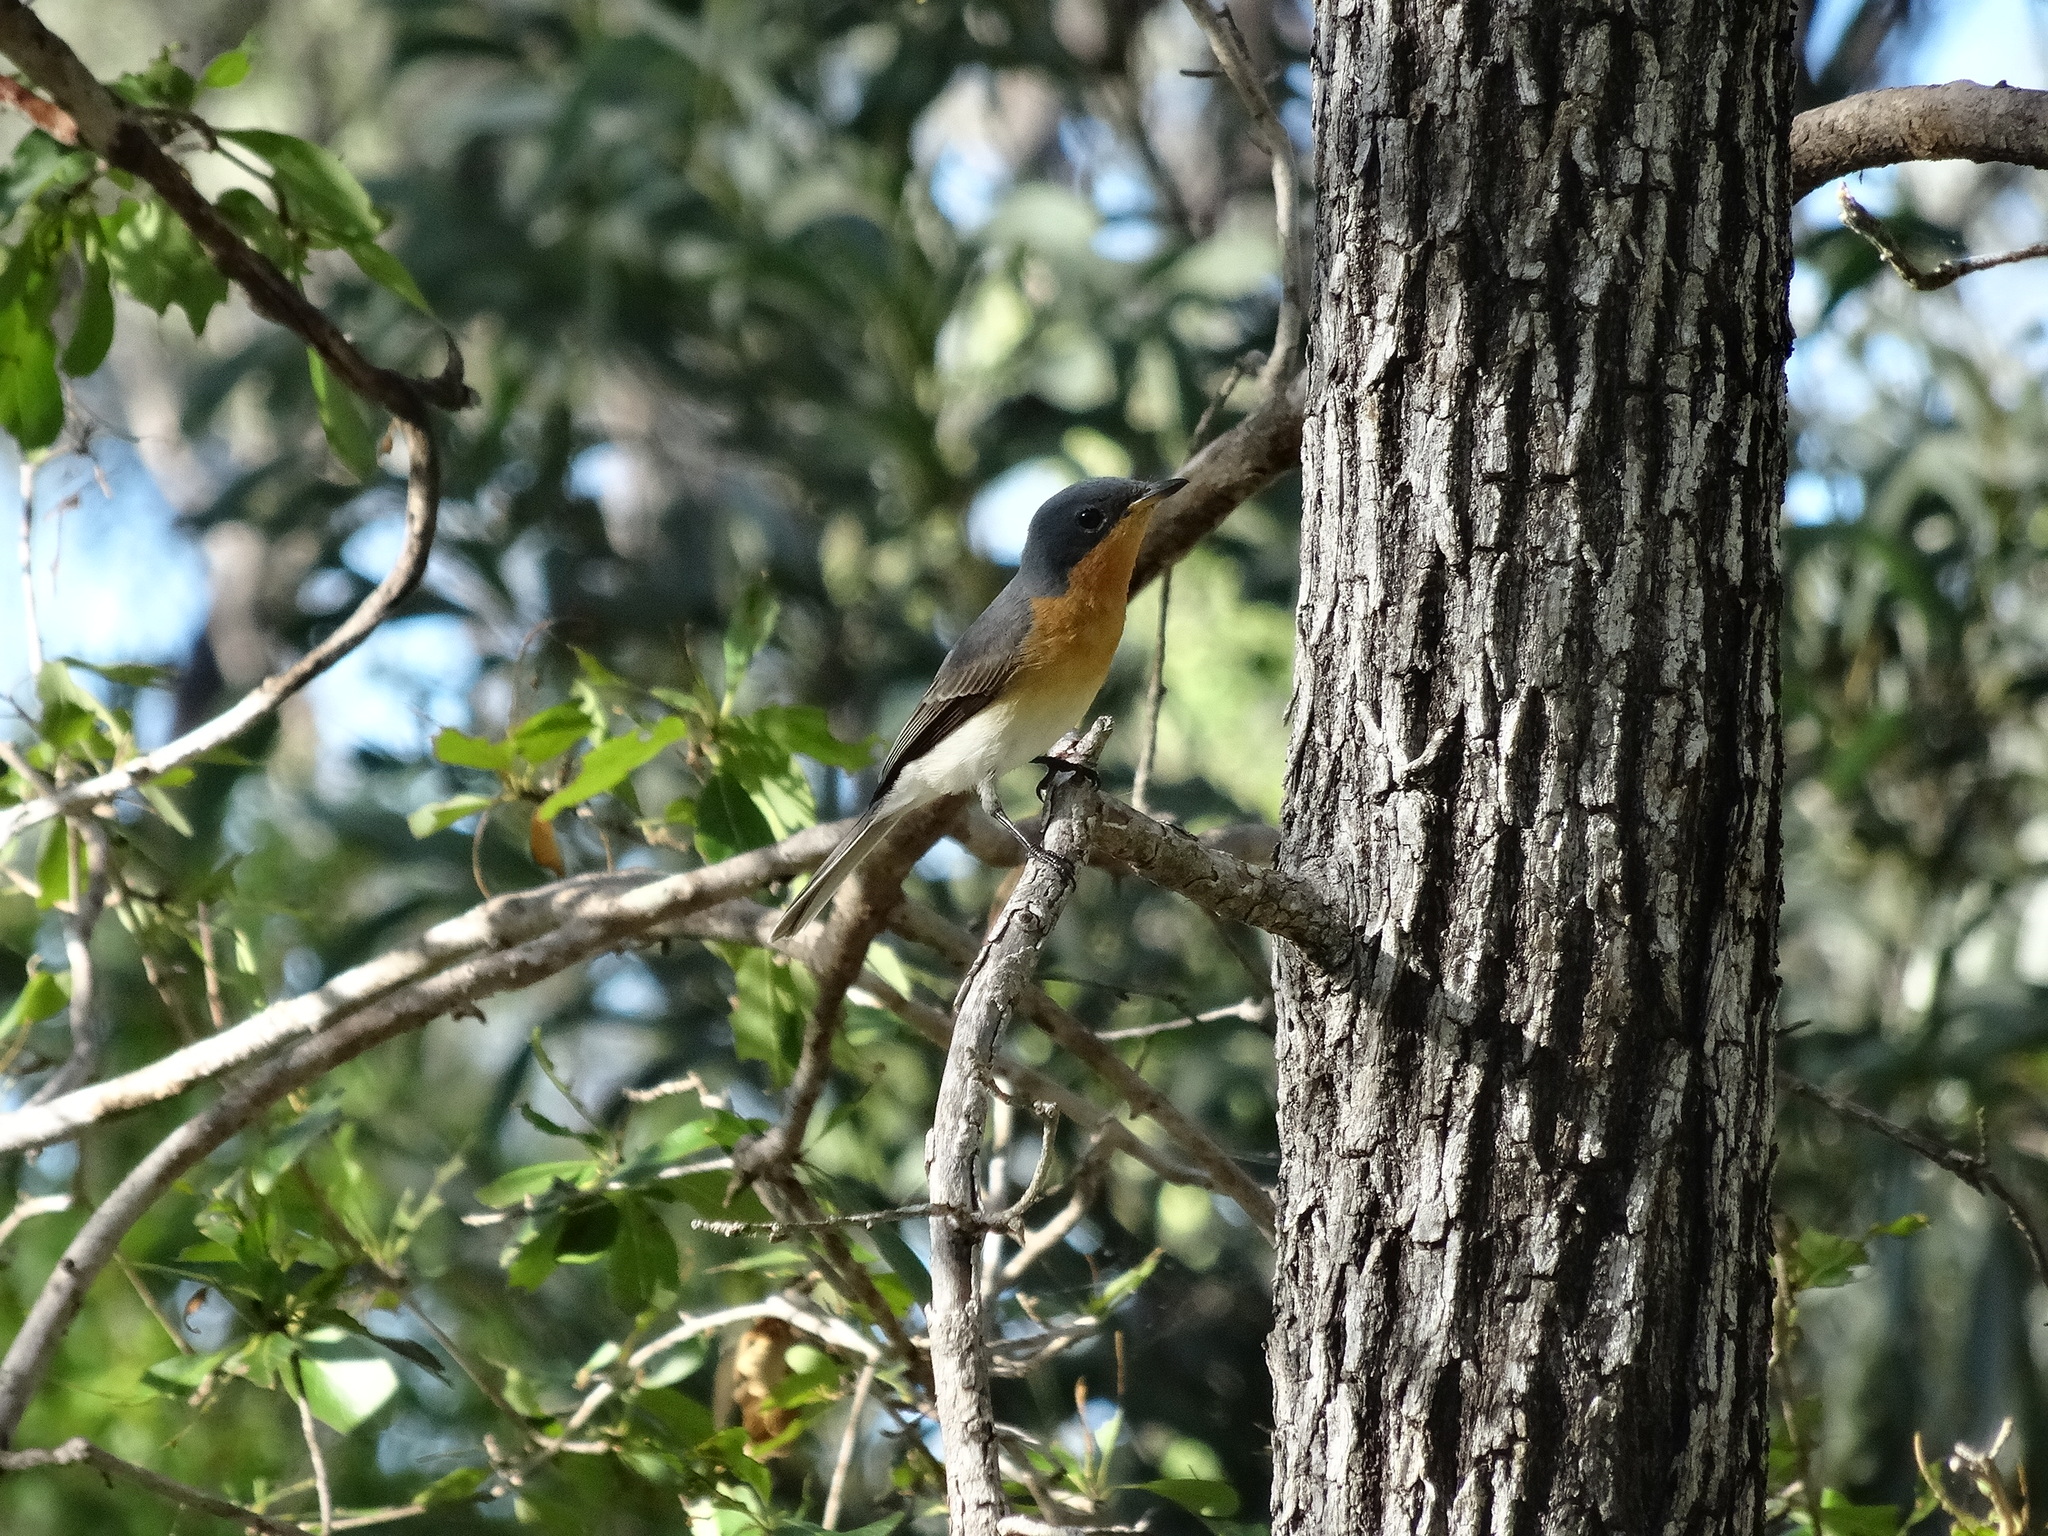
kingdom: Animalia
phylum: Chordata
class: Aves
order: Passeriformes
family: Monarchidae
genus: Myiagra
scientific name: Myiagra rubecula
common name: Leaden flycatcher
